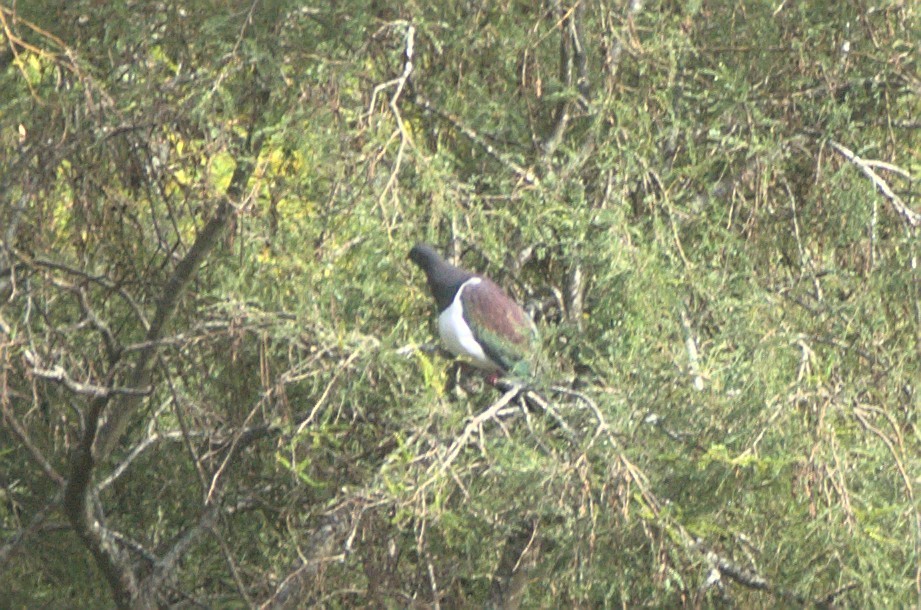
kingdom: Animalia
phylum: Chordata
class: Aves
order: Columbiformes
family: Columbidae
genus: Hemiphaga
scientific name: Hemiphaga novaeseelandiae
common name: New zealand pigeon
